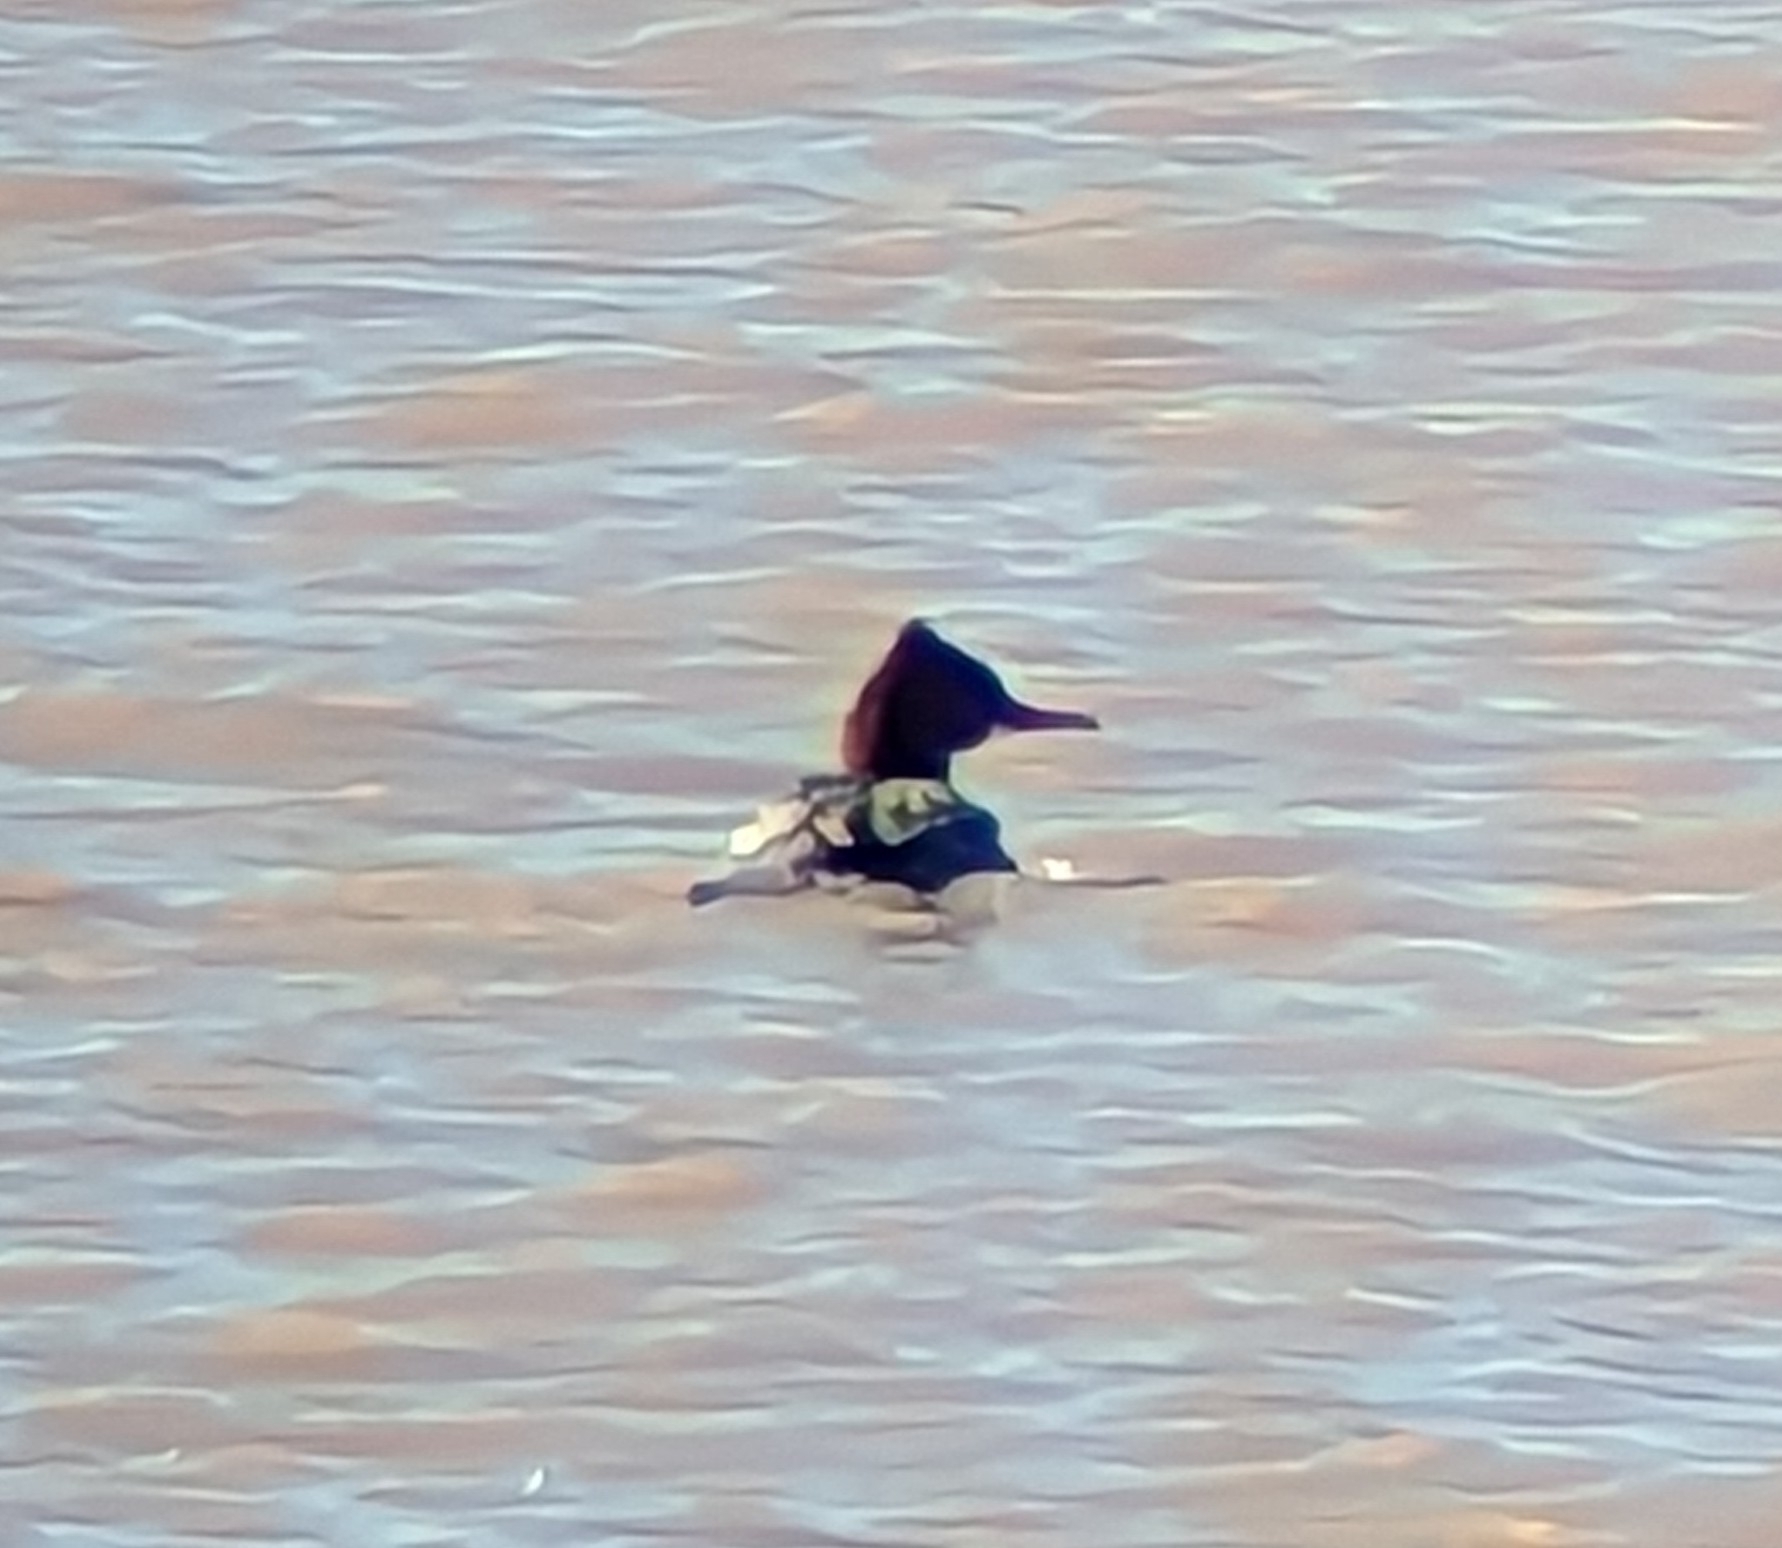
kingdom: Animalia
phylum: Chordata
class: Aves
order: Anseriformes
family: Anatidae
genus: Mergus
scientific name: Mergus merganser
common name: Common merganser
